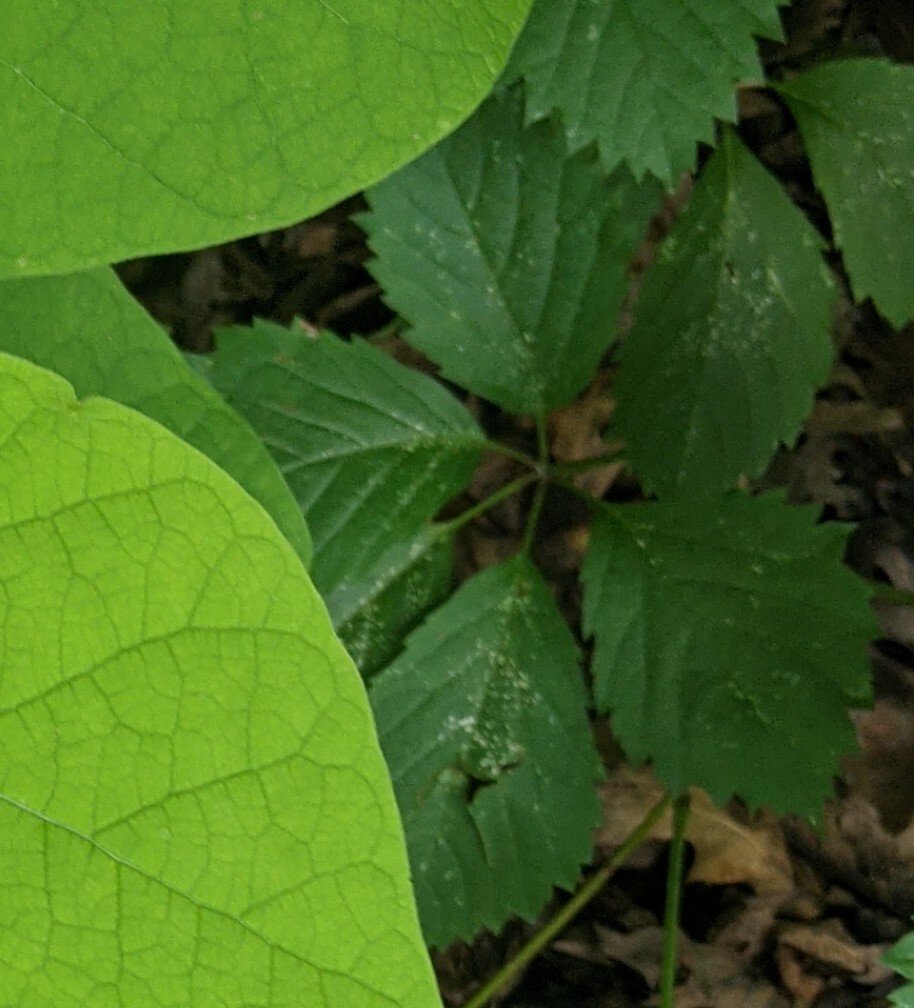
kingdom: Plantae
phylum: Tracheophyta
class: Magnoliopsida
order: Vitales
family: Vitaceae
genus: Parthenocissus
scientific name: Parthenocissus inserta
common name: False virginia-creeper
